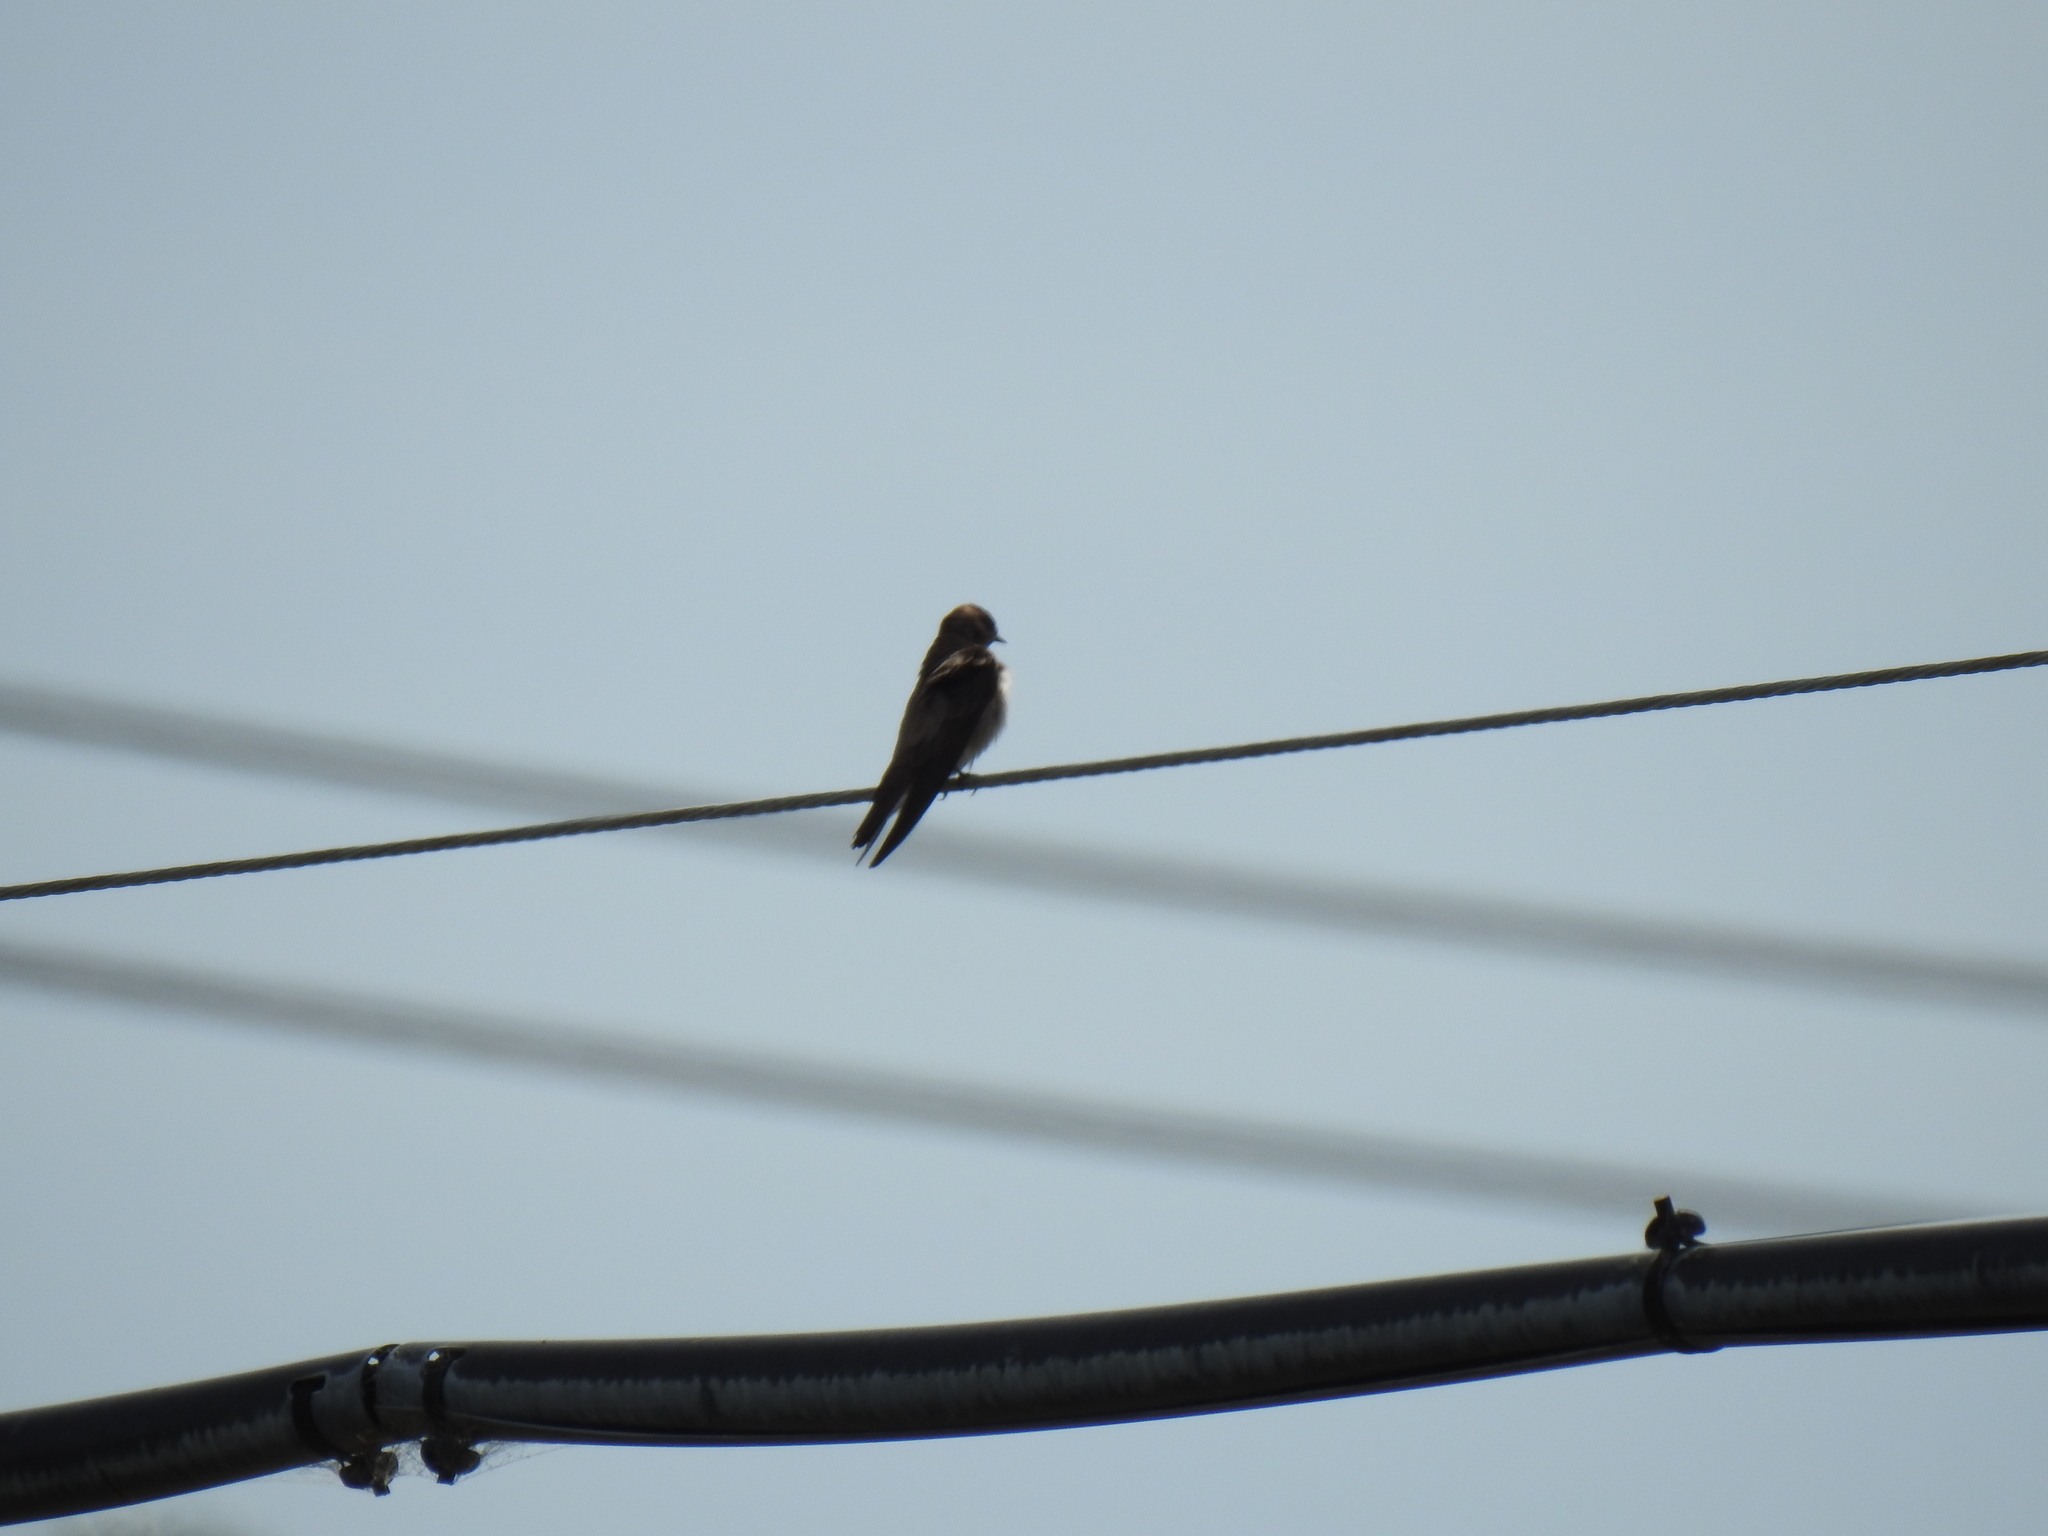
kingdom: Animalia
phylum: Chordata
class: Aves
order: Passeriformes
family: Hirundinidae
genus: Stelgidopteryx
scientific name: Stelgidopteryx serripennis
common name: Northern rough-winged swallow
